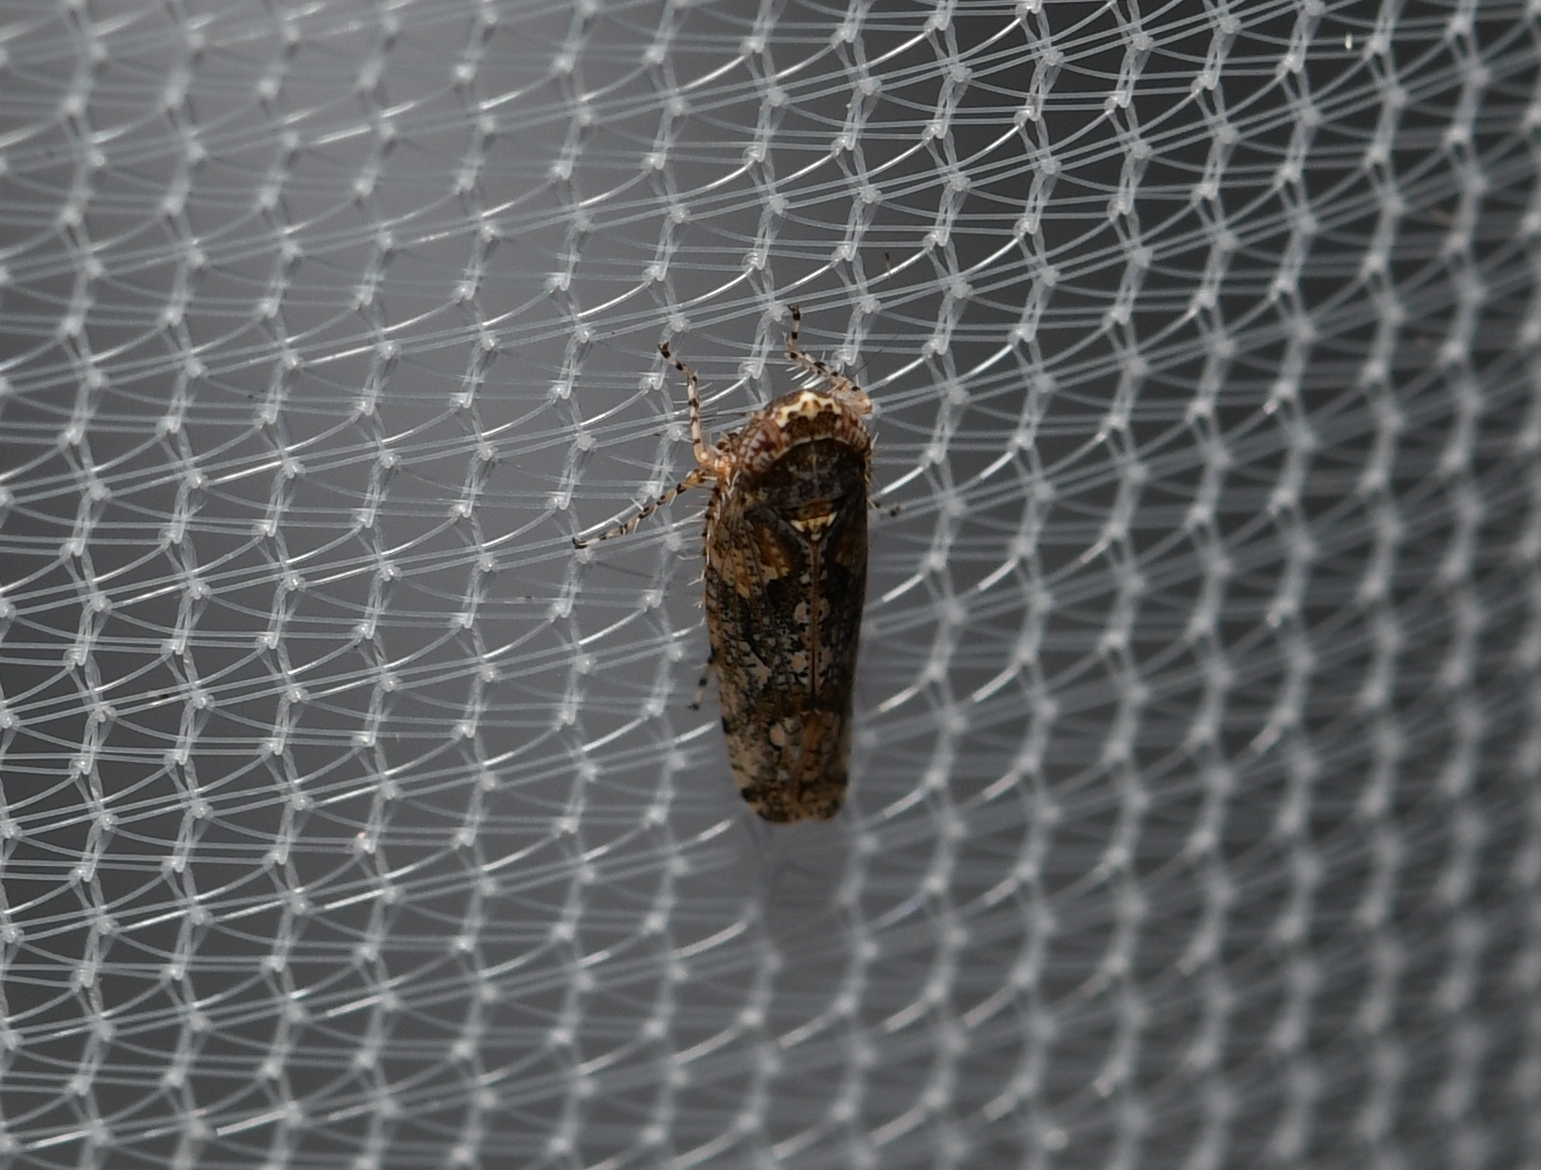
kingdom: Animalia
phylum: Arthropoda
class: Insecta
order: Hemiptera
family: Cicadellidae
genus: Dixianus
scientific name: Dixianus utahnus
